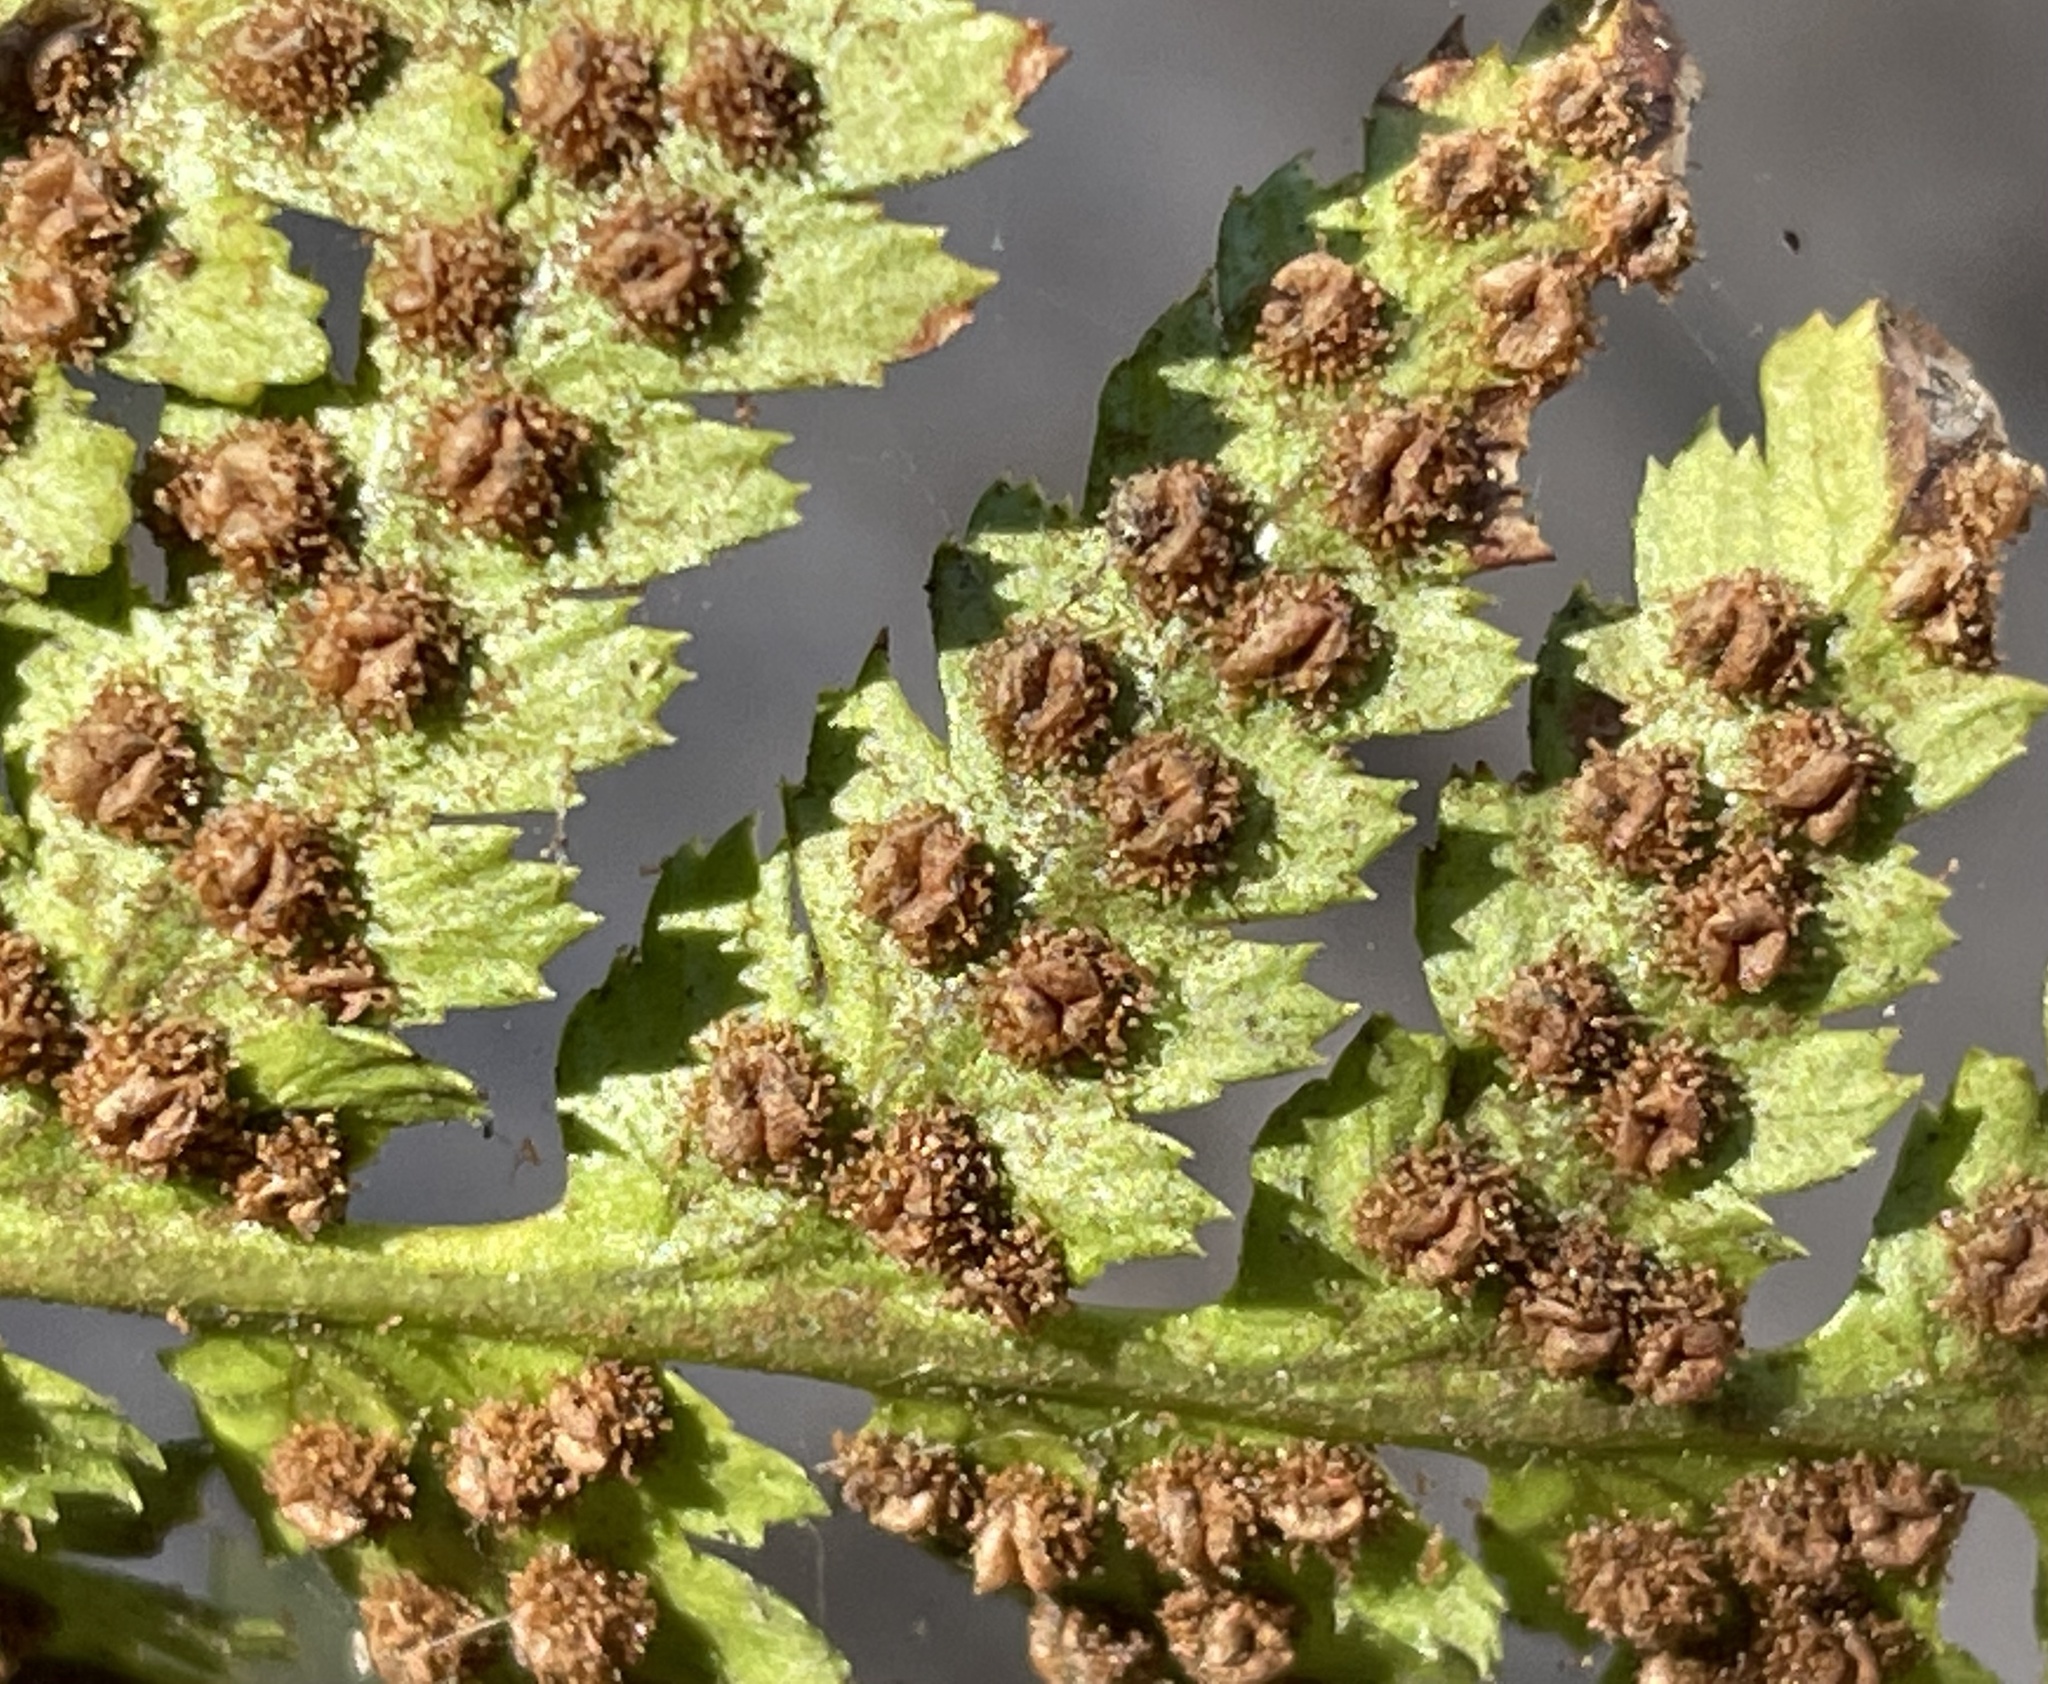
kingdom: Plantae
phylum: Tracheophyta
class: Polypodiopsida
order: Polypodiales
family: Dryopteridaceae
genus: Dryopteris
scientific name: Dryopteris arguta
